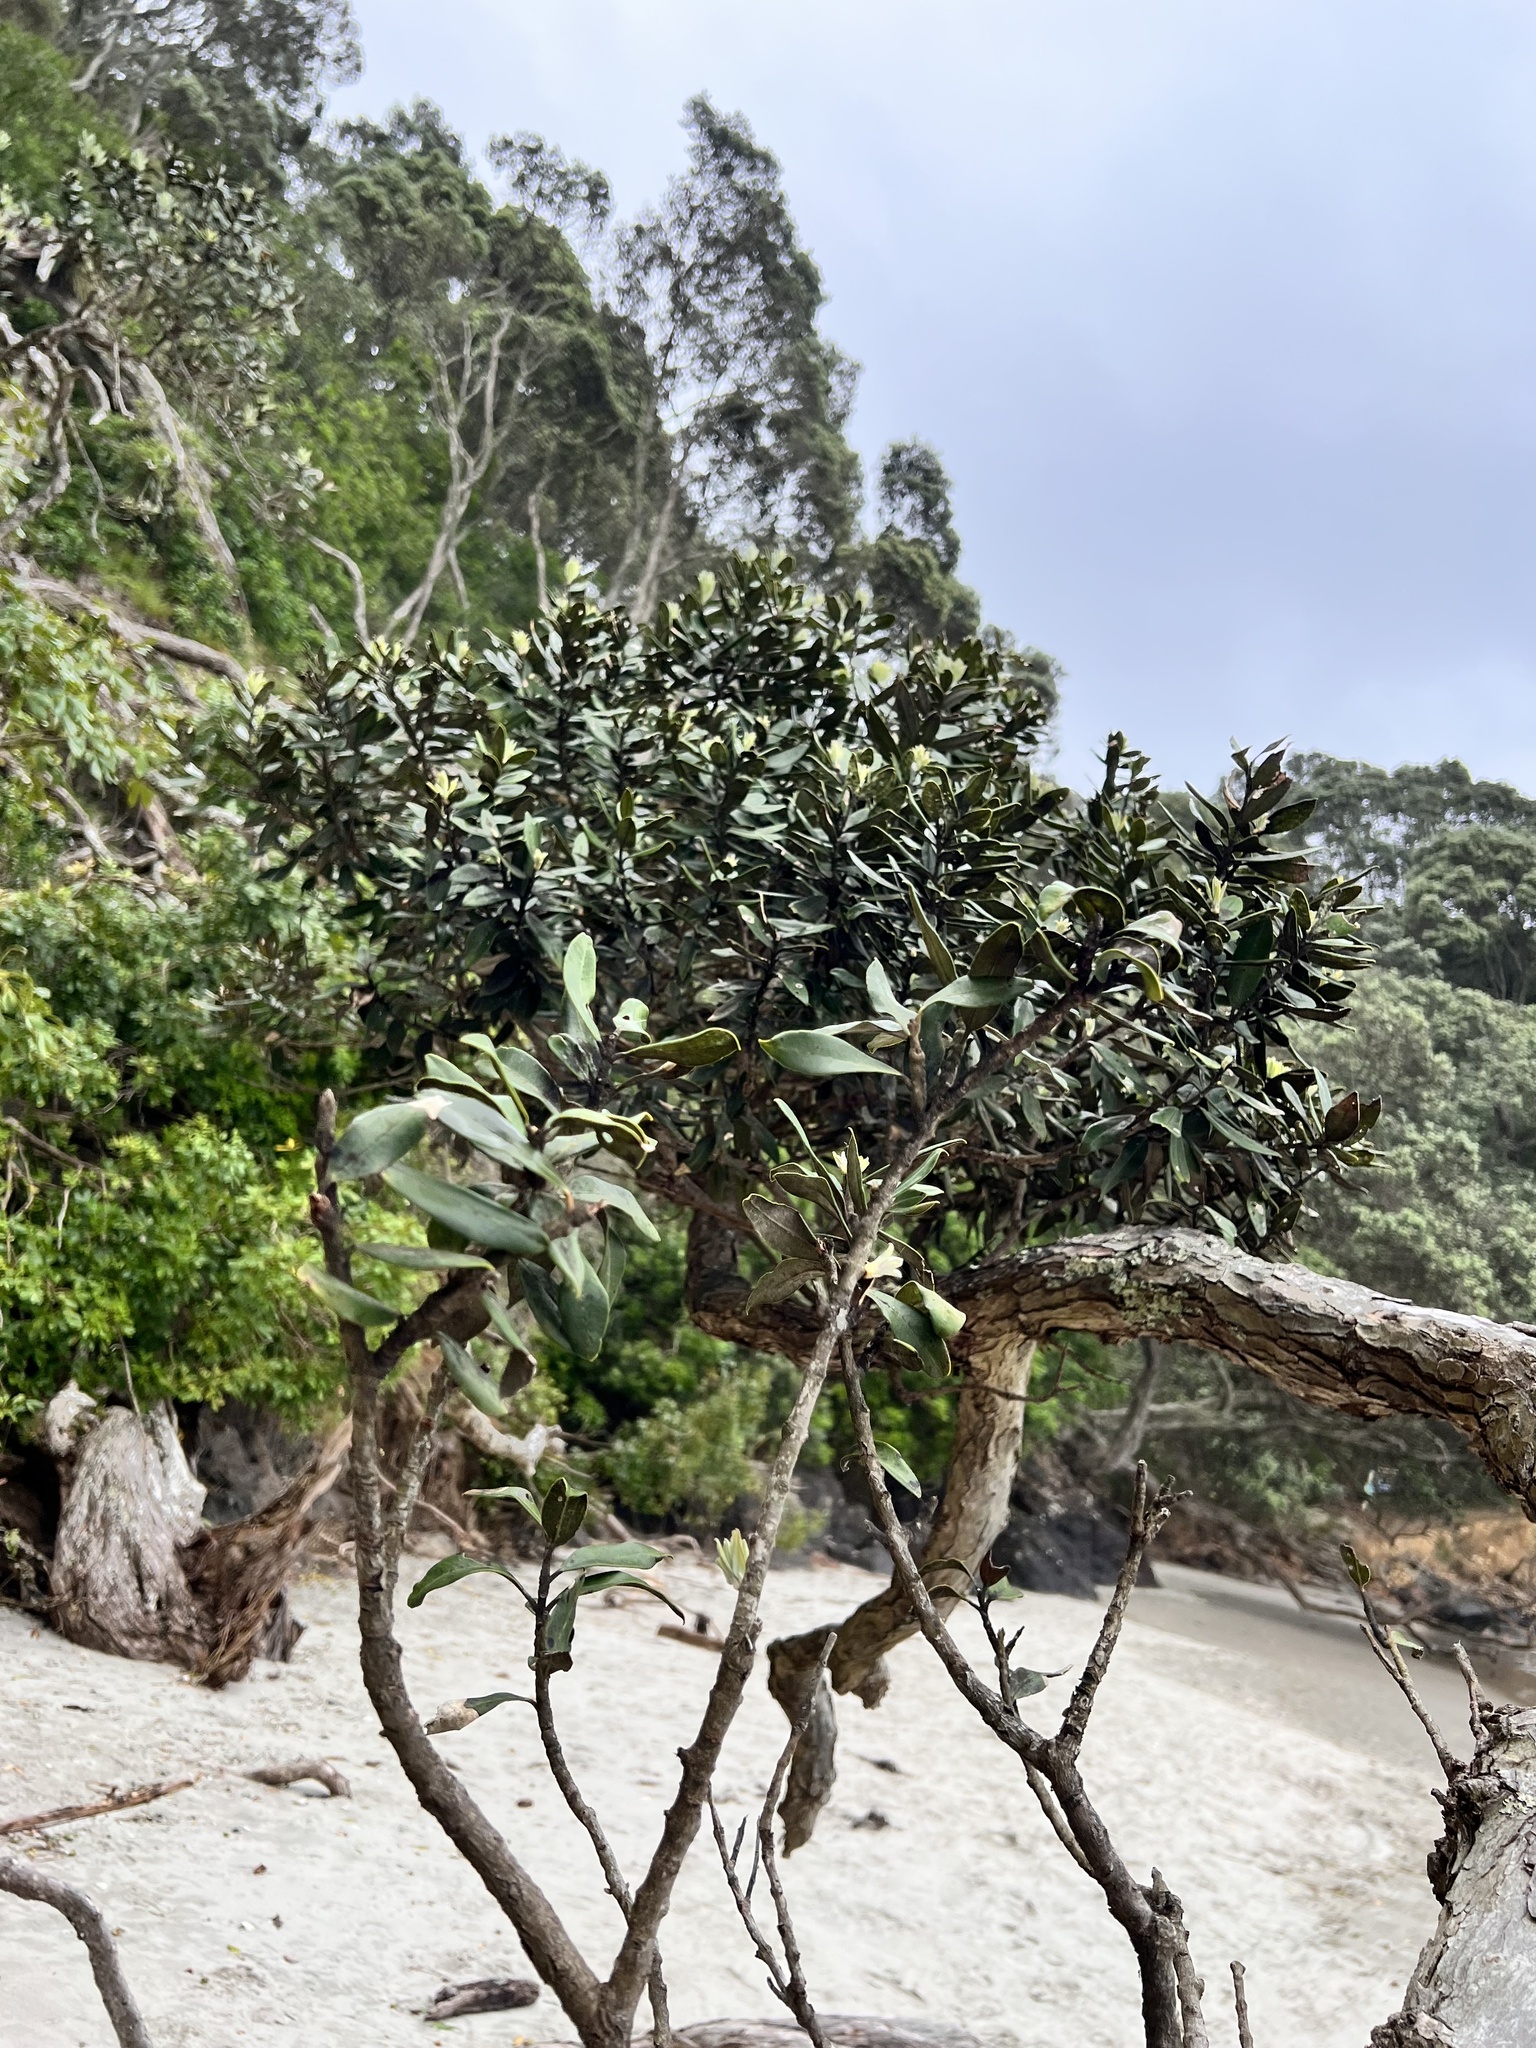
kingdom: Plantae
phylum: Tracheophyta
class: Magnoliopsida
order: Myrtales
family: Myrtaceae
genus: Metrosideros
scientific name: Metrosideros excelsa
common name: New zealand christmastree
